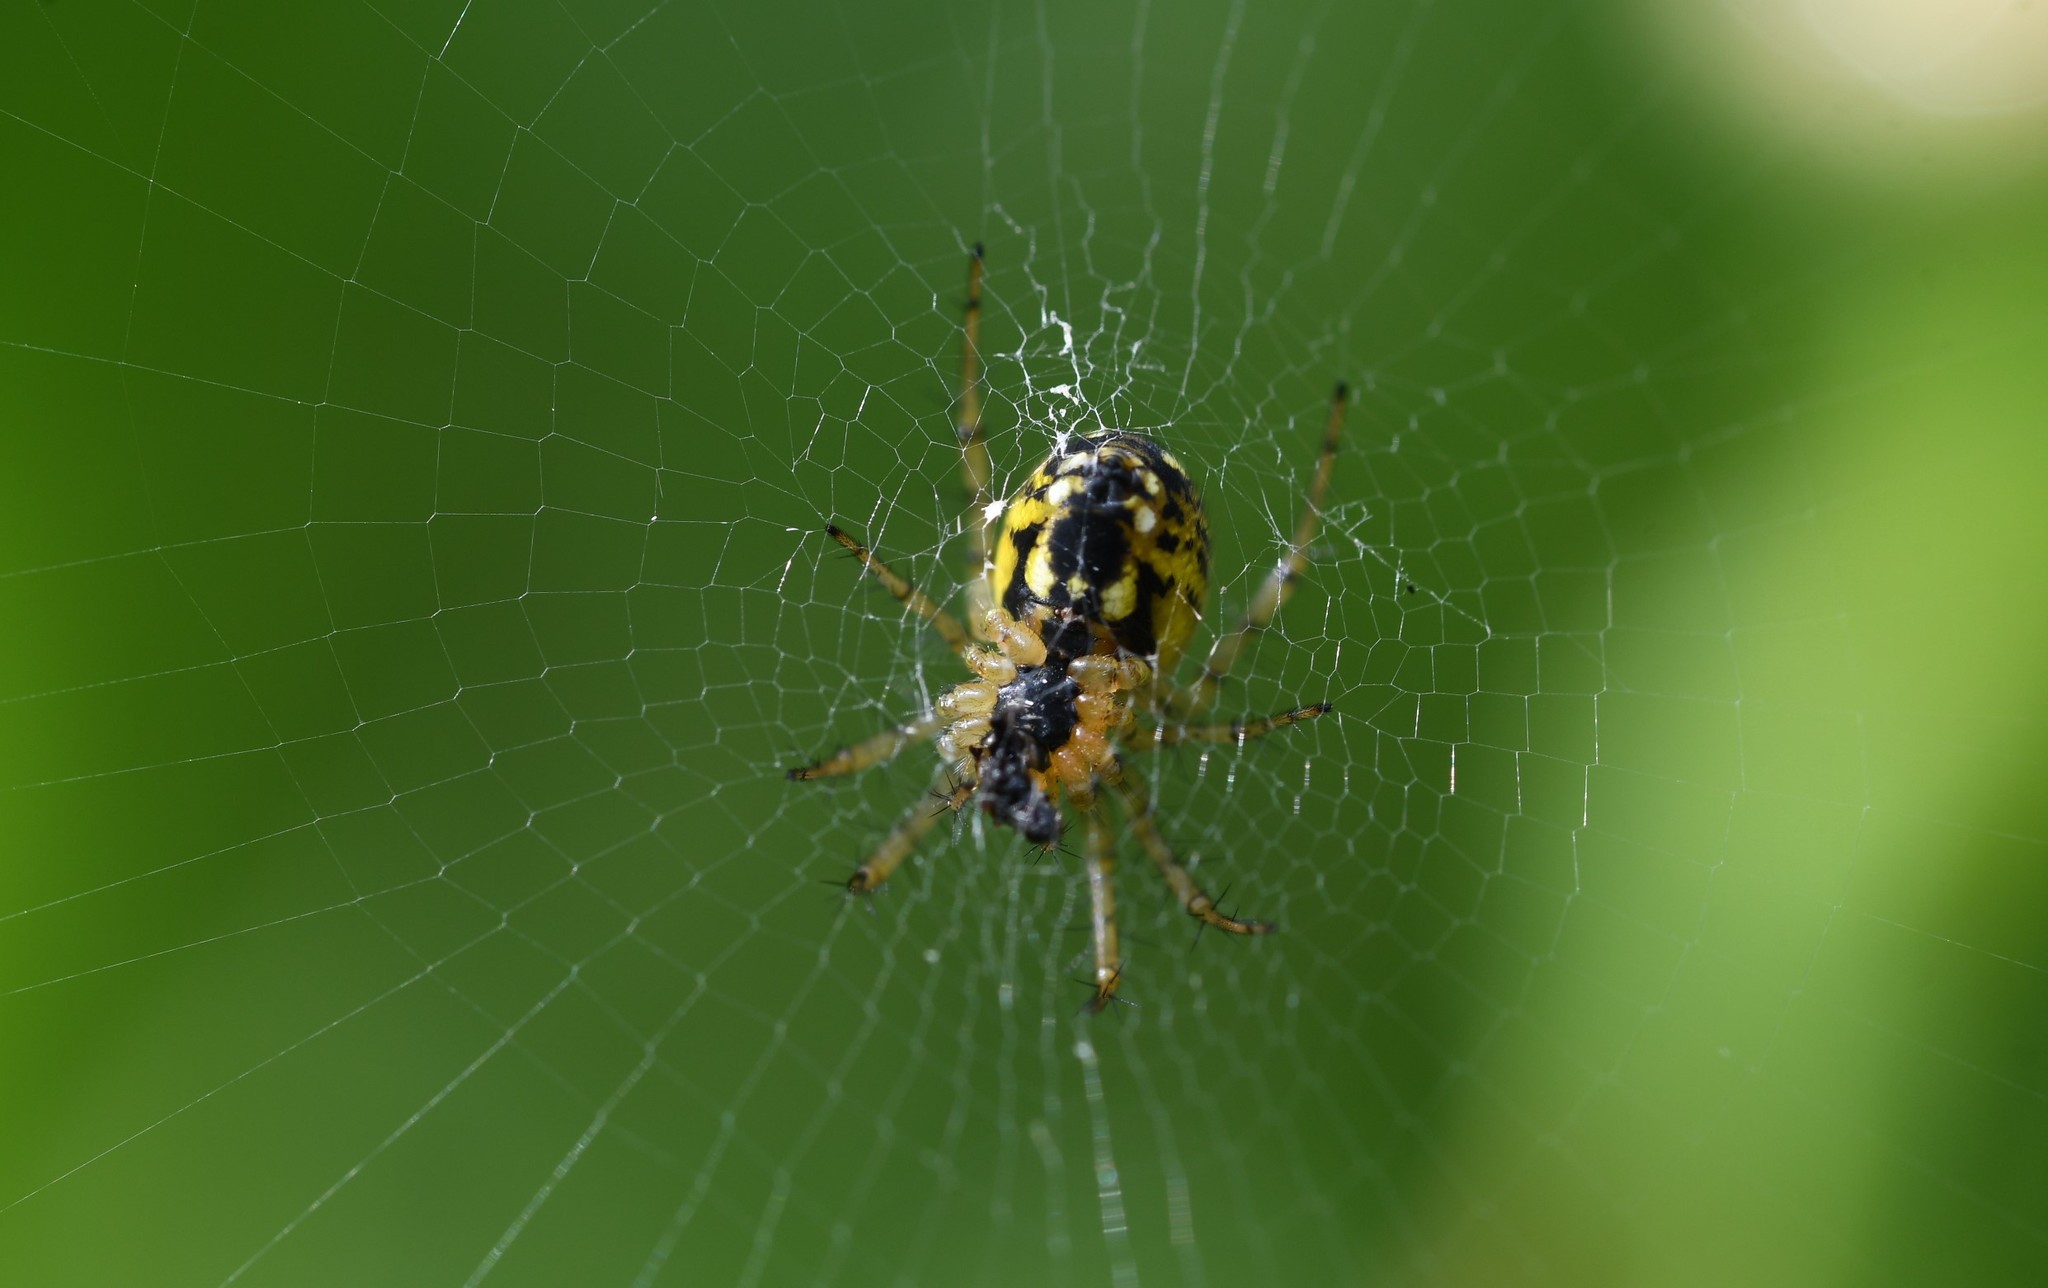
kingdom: Animalia
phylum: Arthropoda
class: Arachnida
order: Araneae
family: Araneidae
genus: Mangora
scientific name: Mangora acalypha
